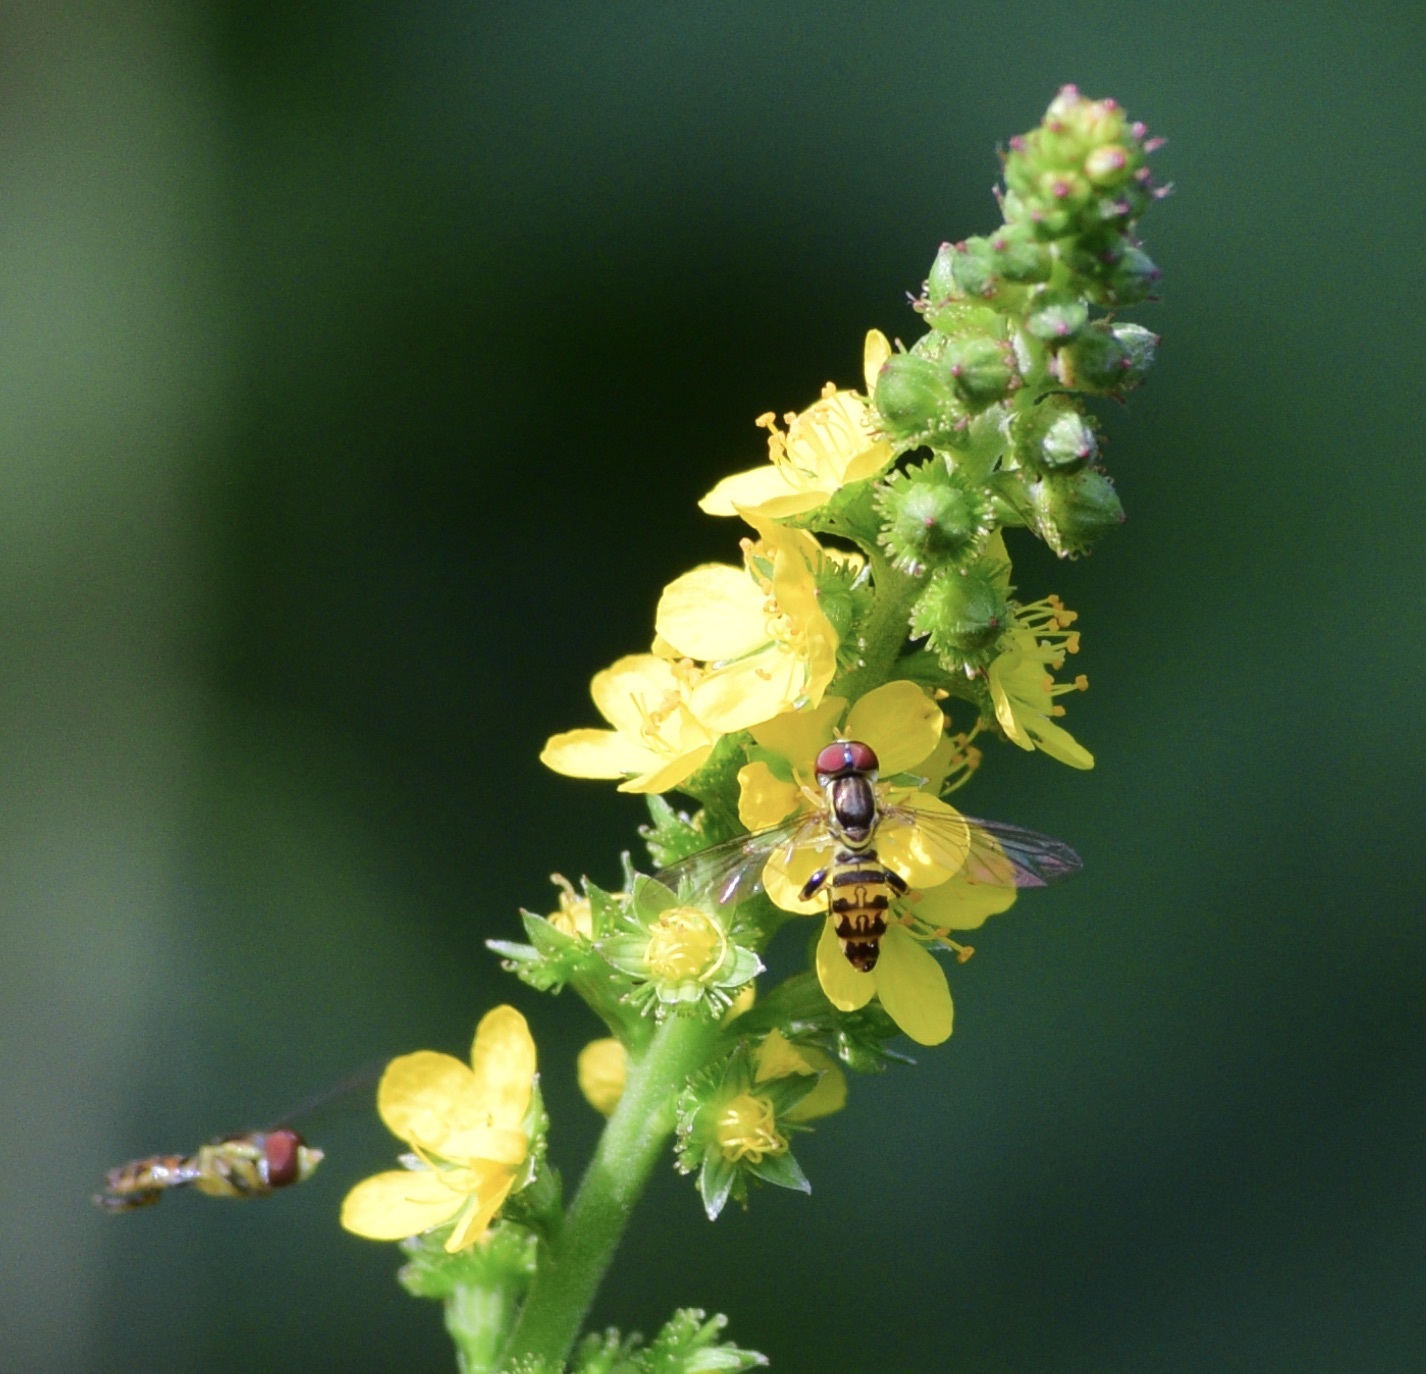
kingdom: Animalia
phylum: Arthropoda
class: Insecta
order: Diptera
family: Syrphidae
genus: Toxomerus
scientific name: Toxomerus geminatus
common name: Eastern calligrapher
